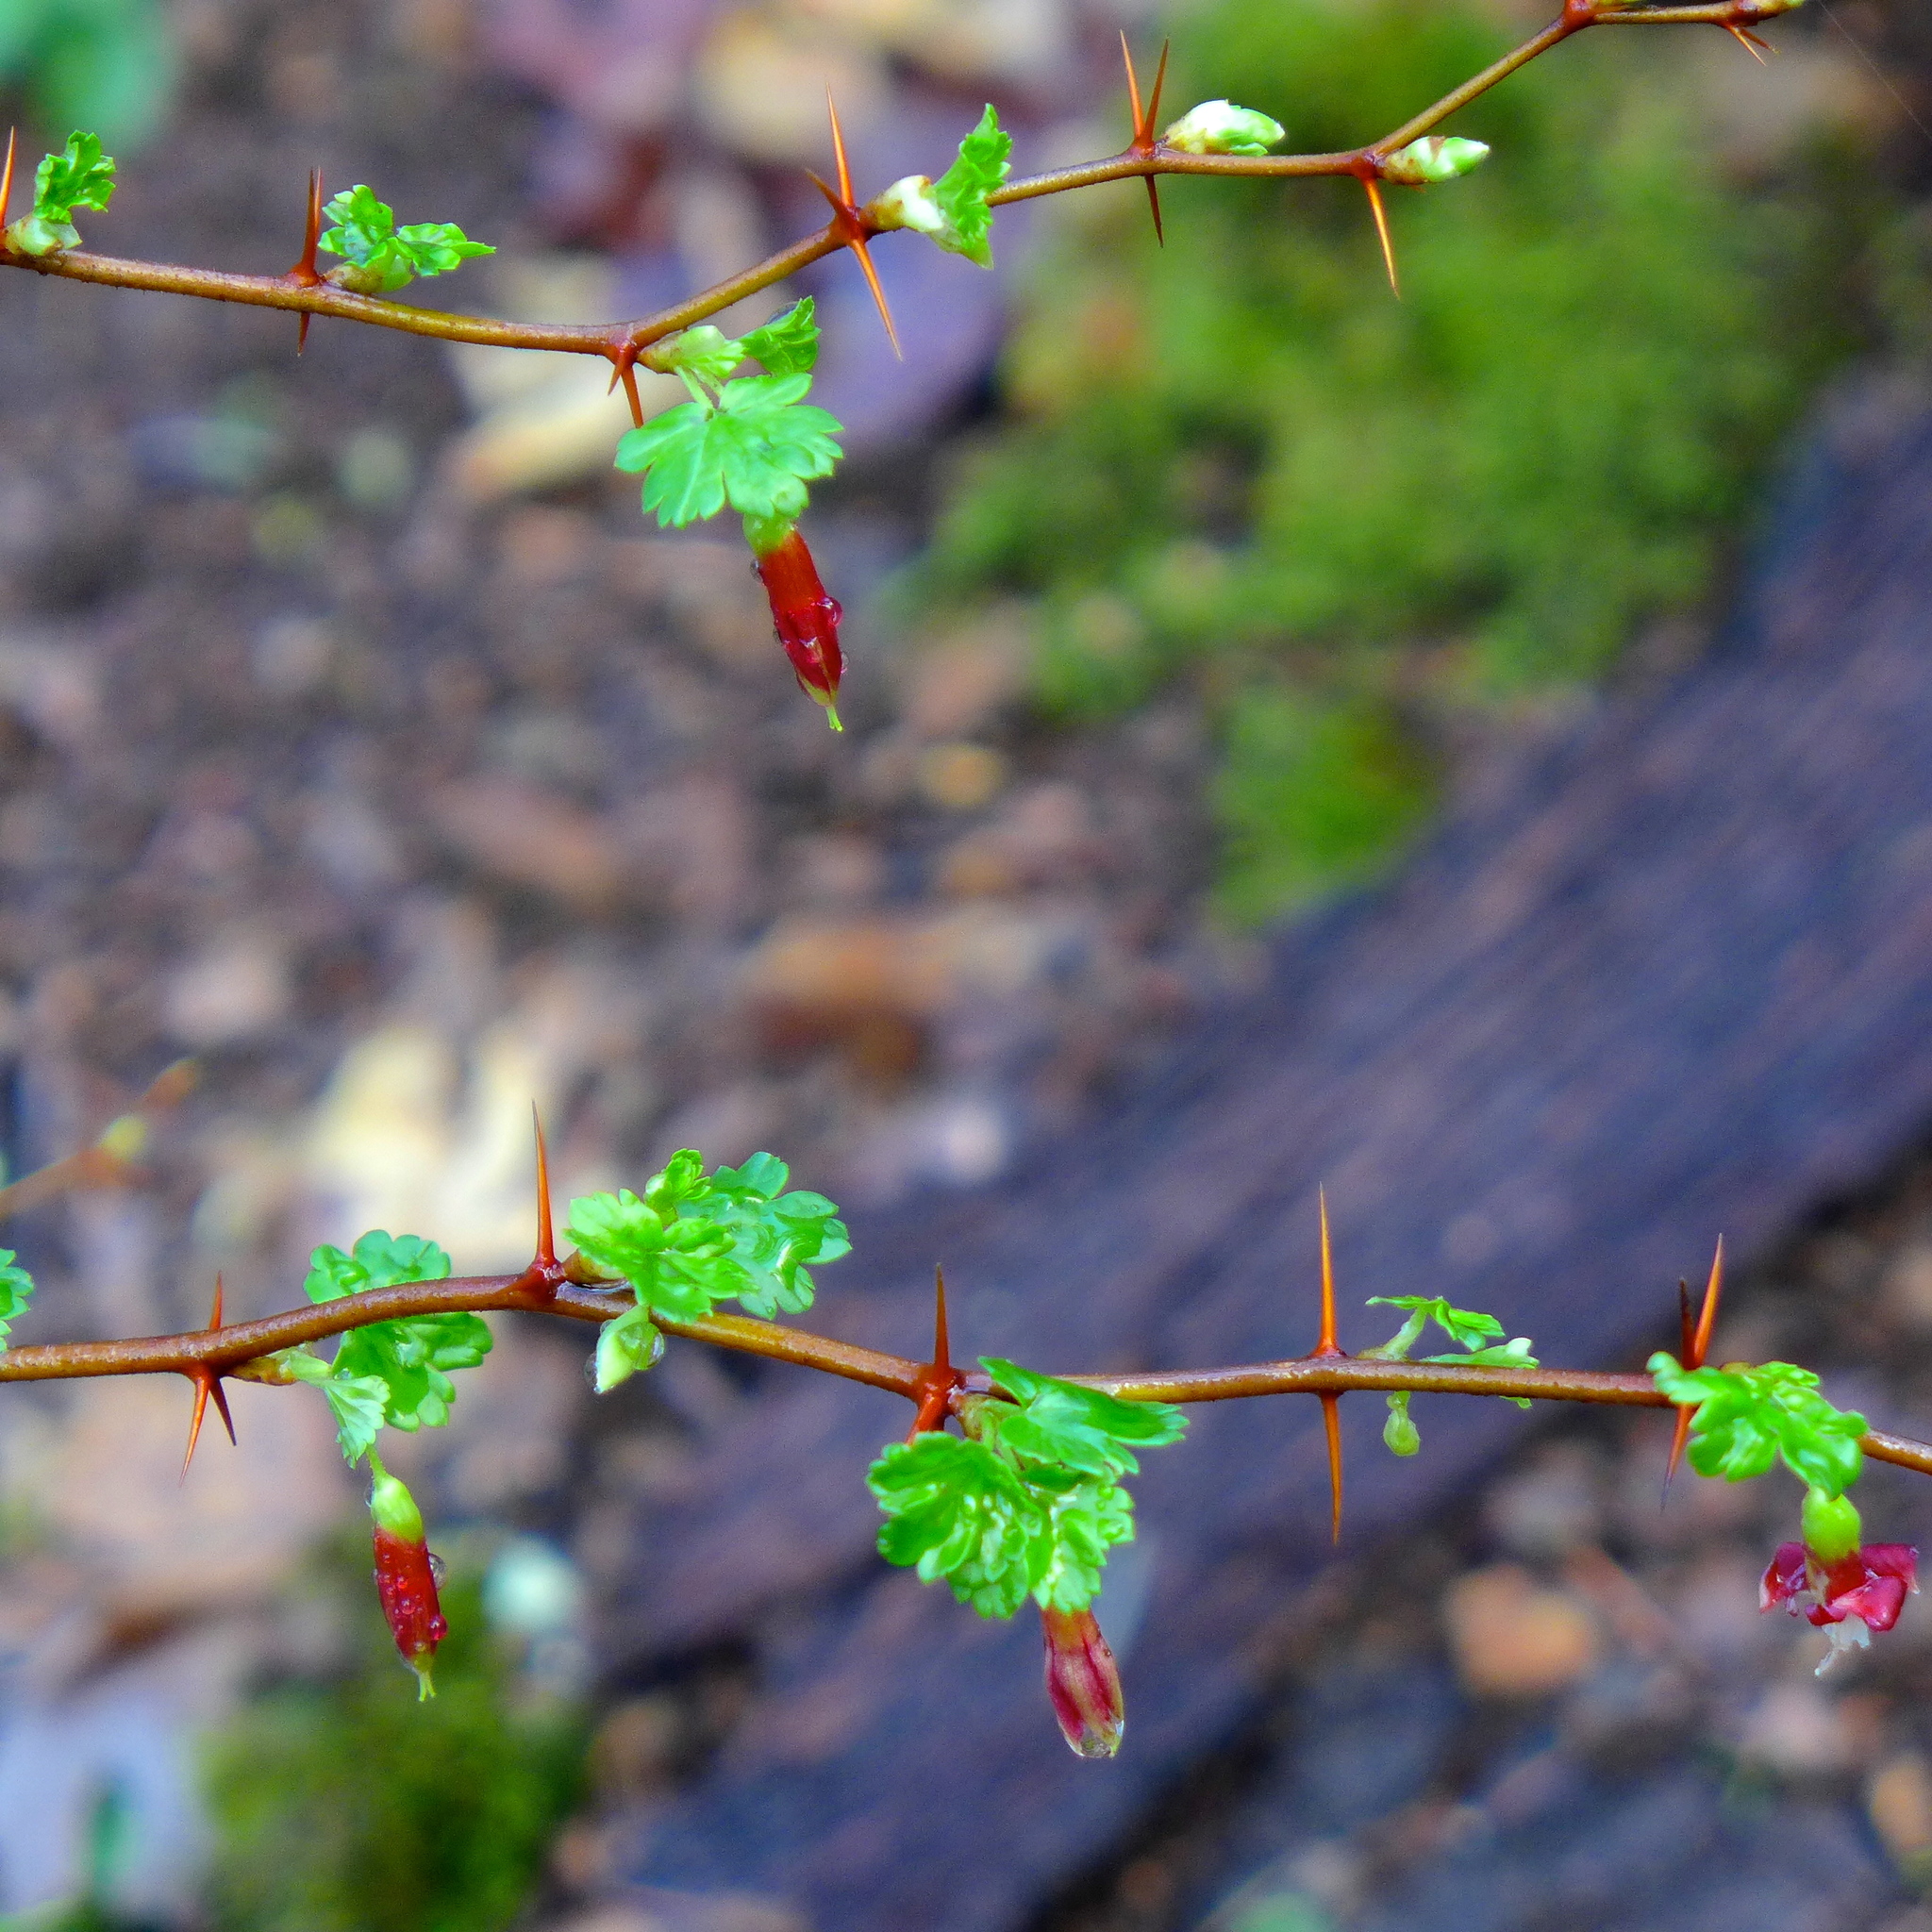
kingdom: Plantae
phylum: Tracheophyta
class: Magnoliopsida
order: Saxifragales
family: Grossulariaceae
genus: Ribes
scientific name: Ribes californicum
